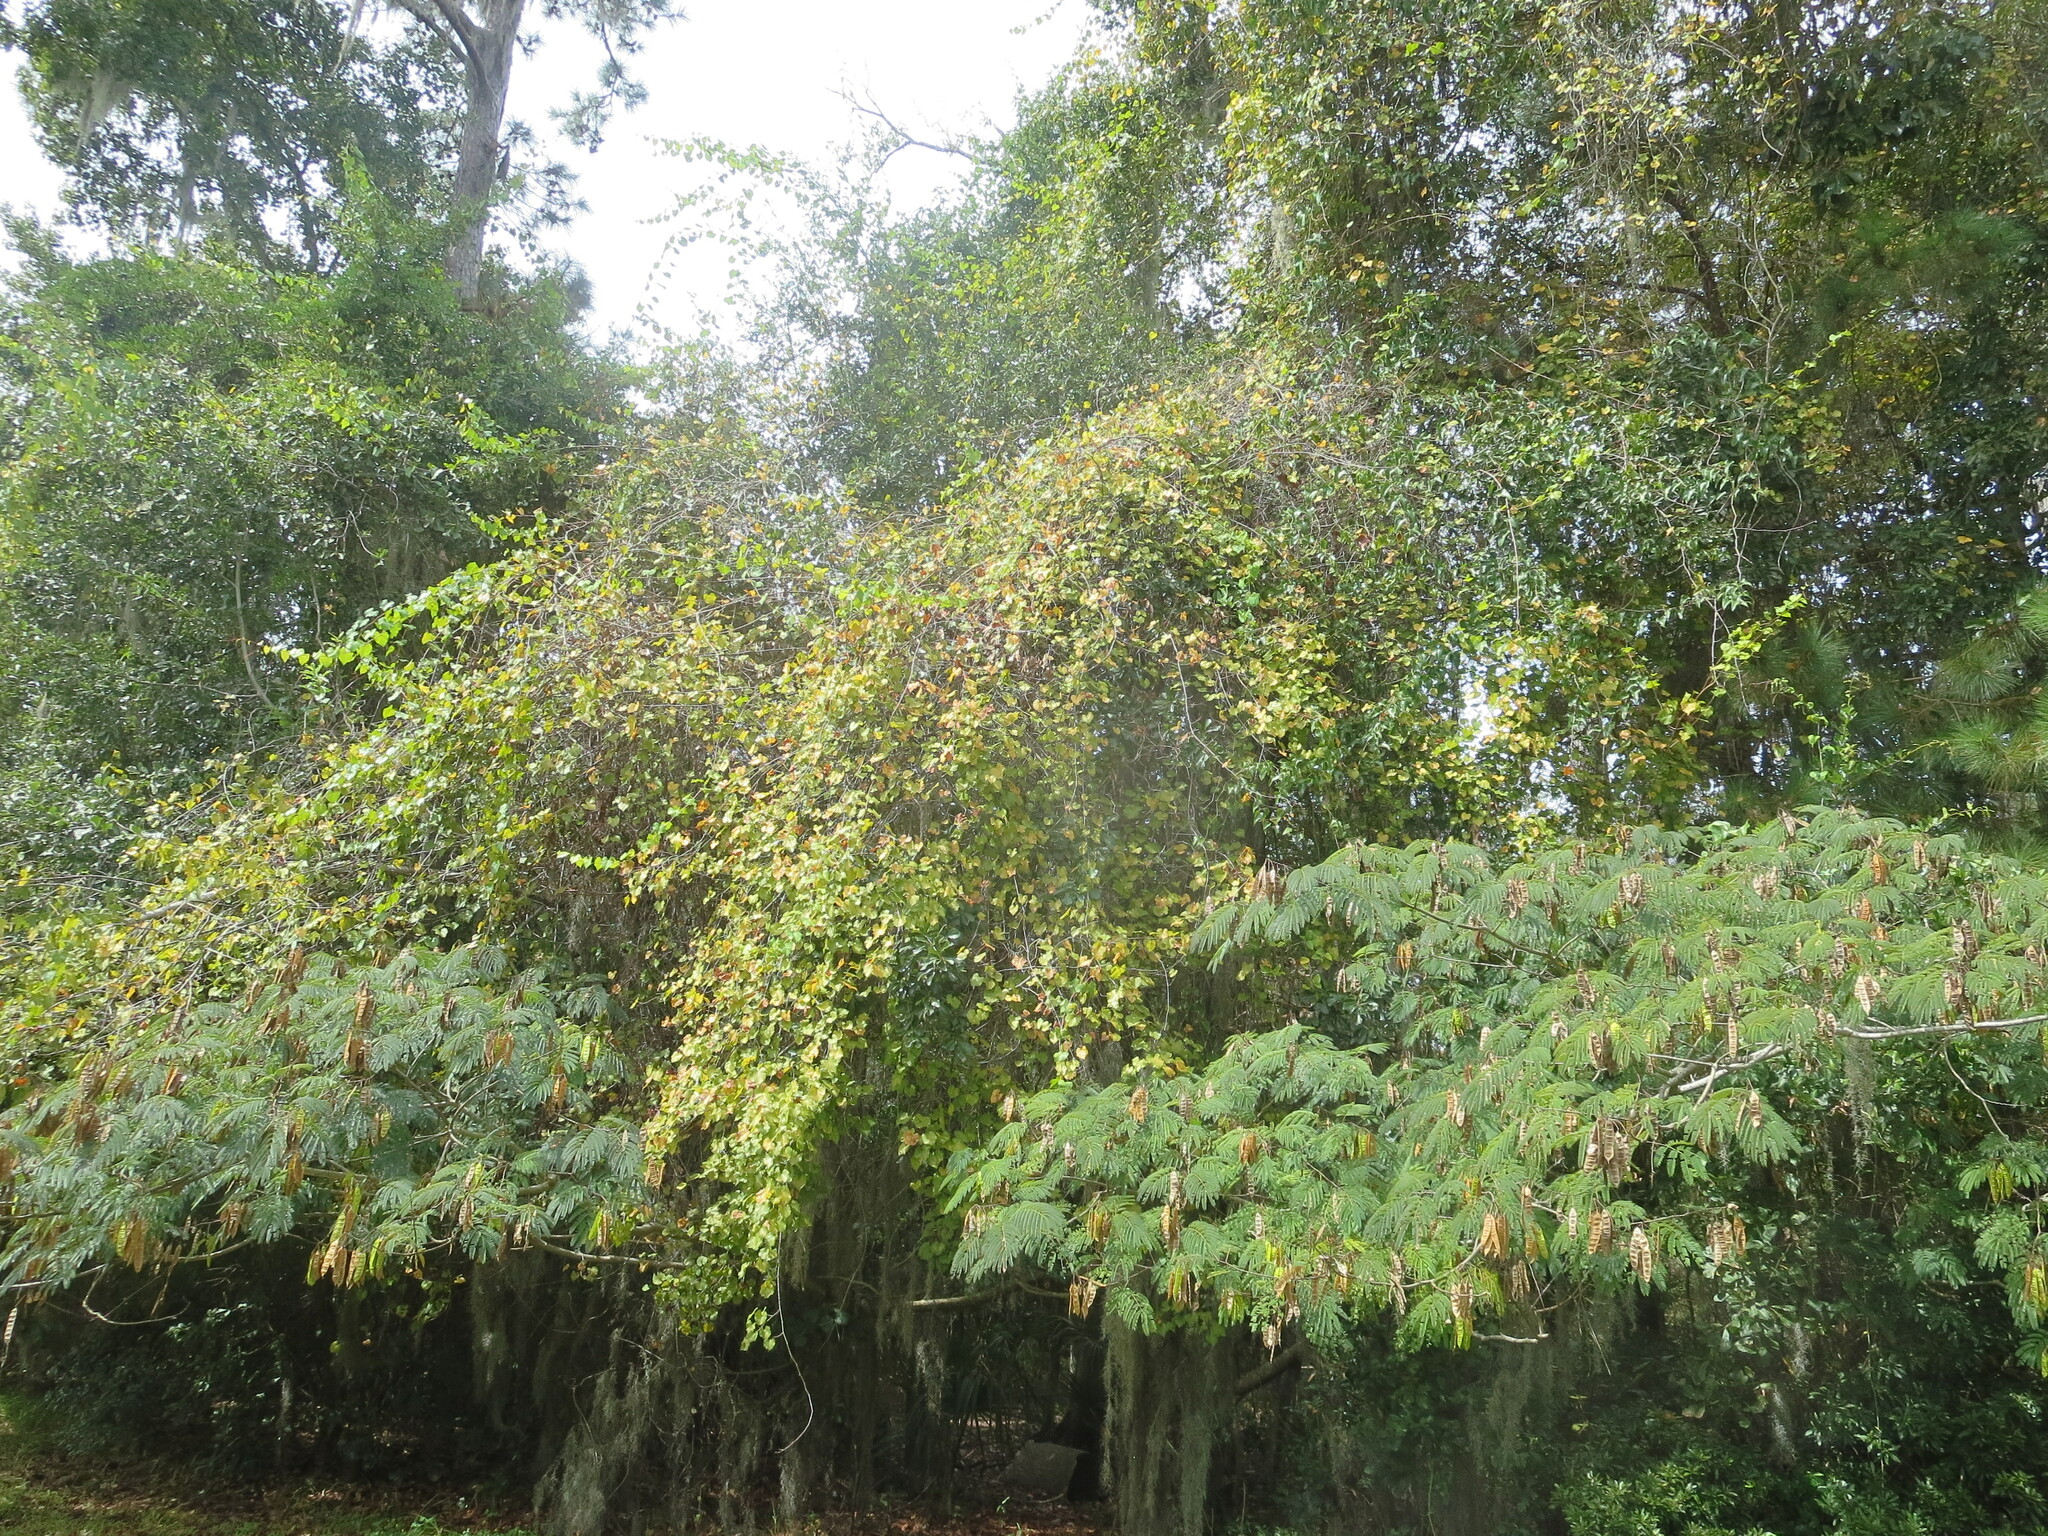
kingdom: Plantae
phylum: Tracheophyta
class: Magnoliopsida
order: Vitales
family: Vitaceae
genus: Vitis
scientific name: Vitis rotundifolia
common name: Muscadine grape
